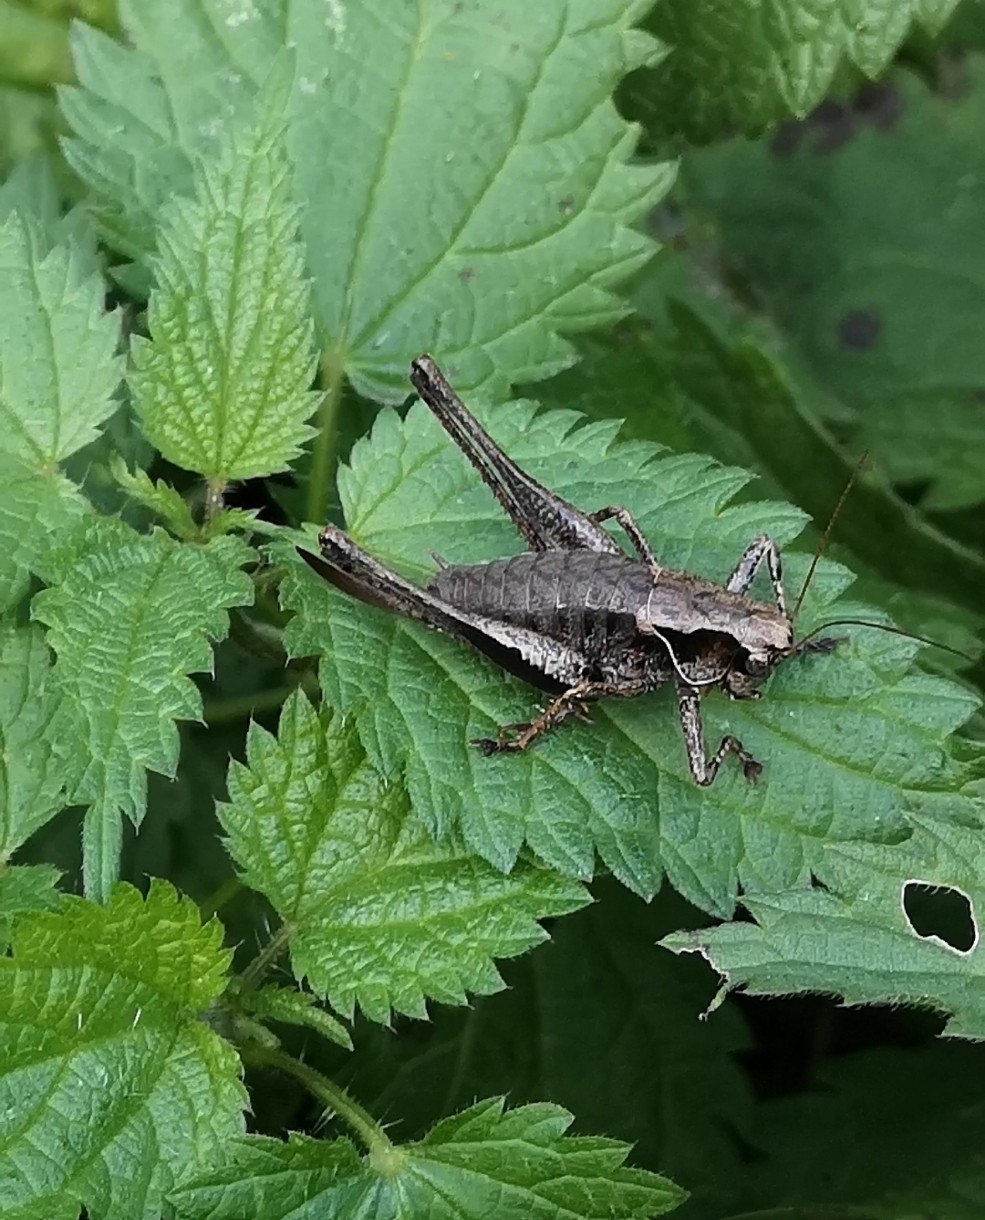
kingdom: Animalia
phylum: Arthropoda
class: Insecta
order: Orthoptera
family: Tettigoniidae
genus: Pholidoptera
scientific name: Pholidoptera griseoaptera
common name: Dark bush-cricket
